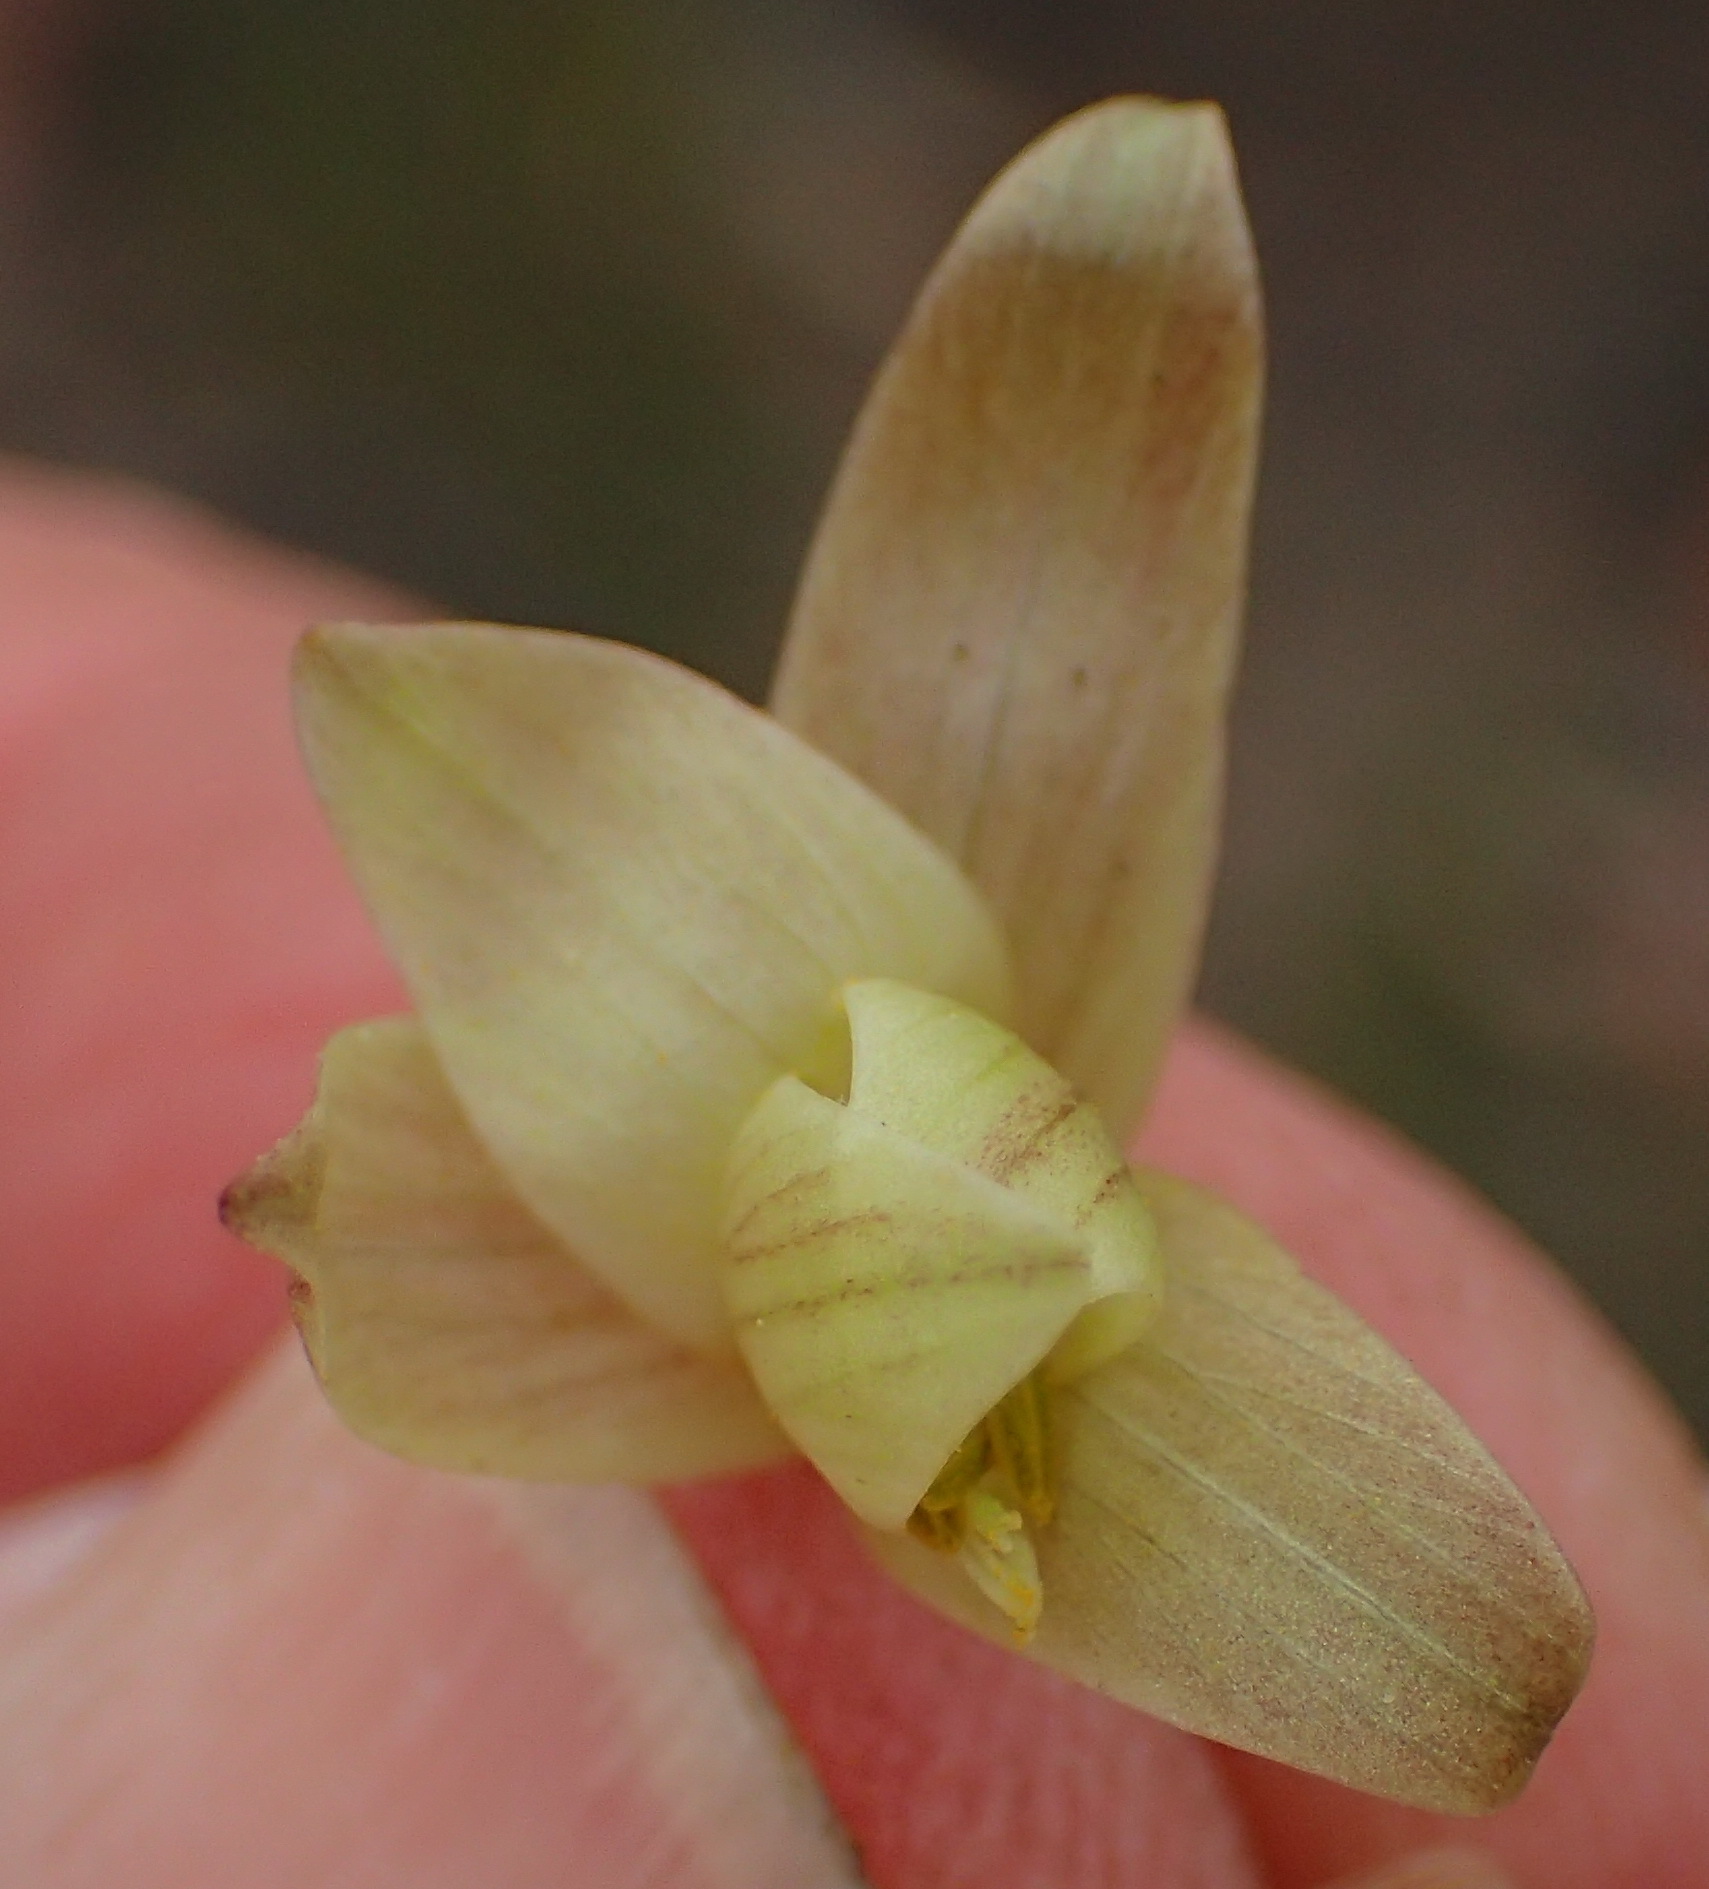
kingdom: Plantae
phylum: Tracheophyta
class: Liliopsida
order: Asparagales
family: Iridaceae
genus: Hesperantha
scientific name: Hesperantha radiata
